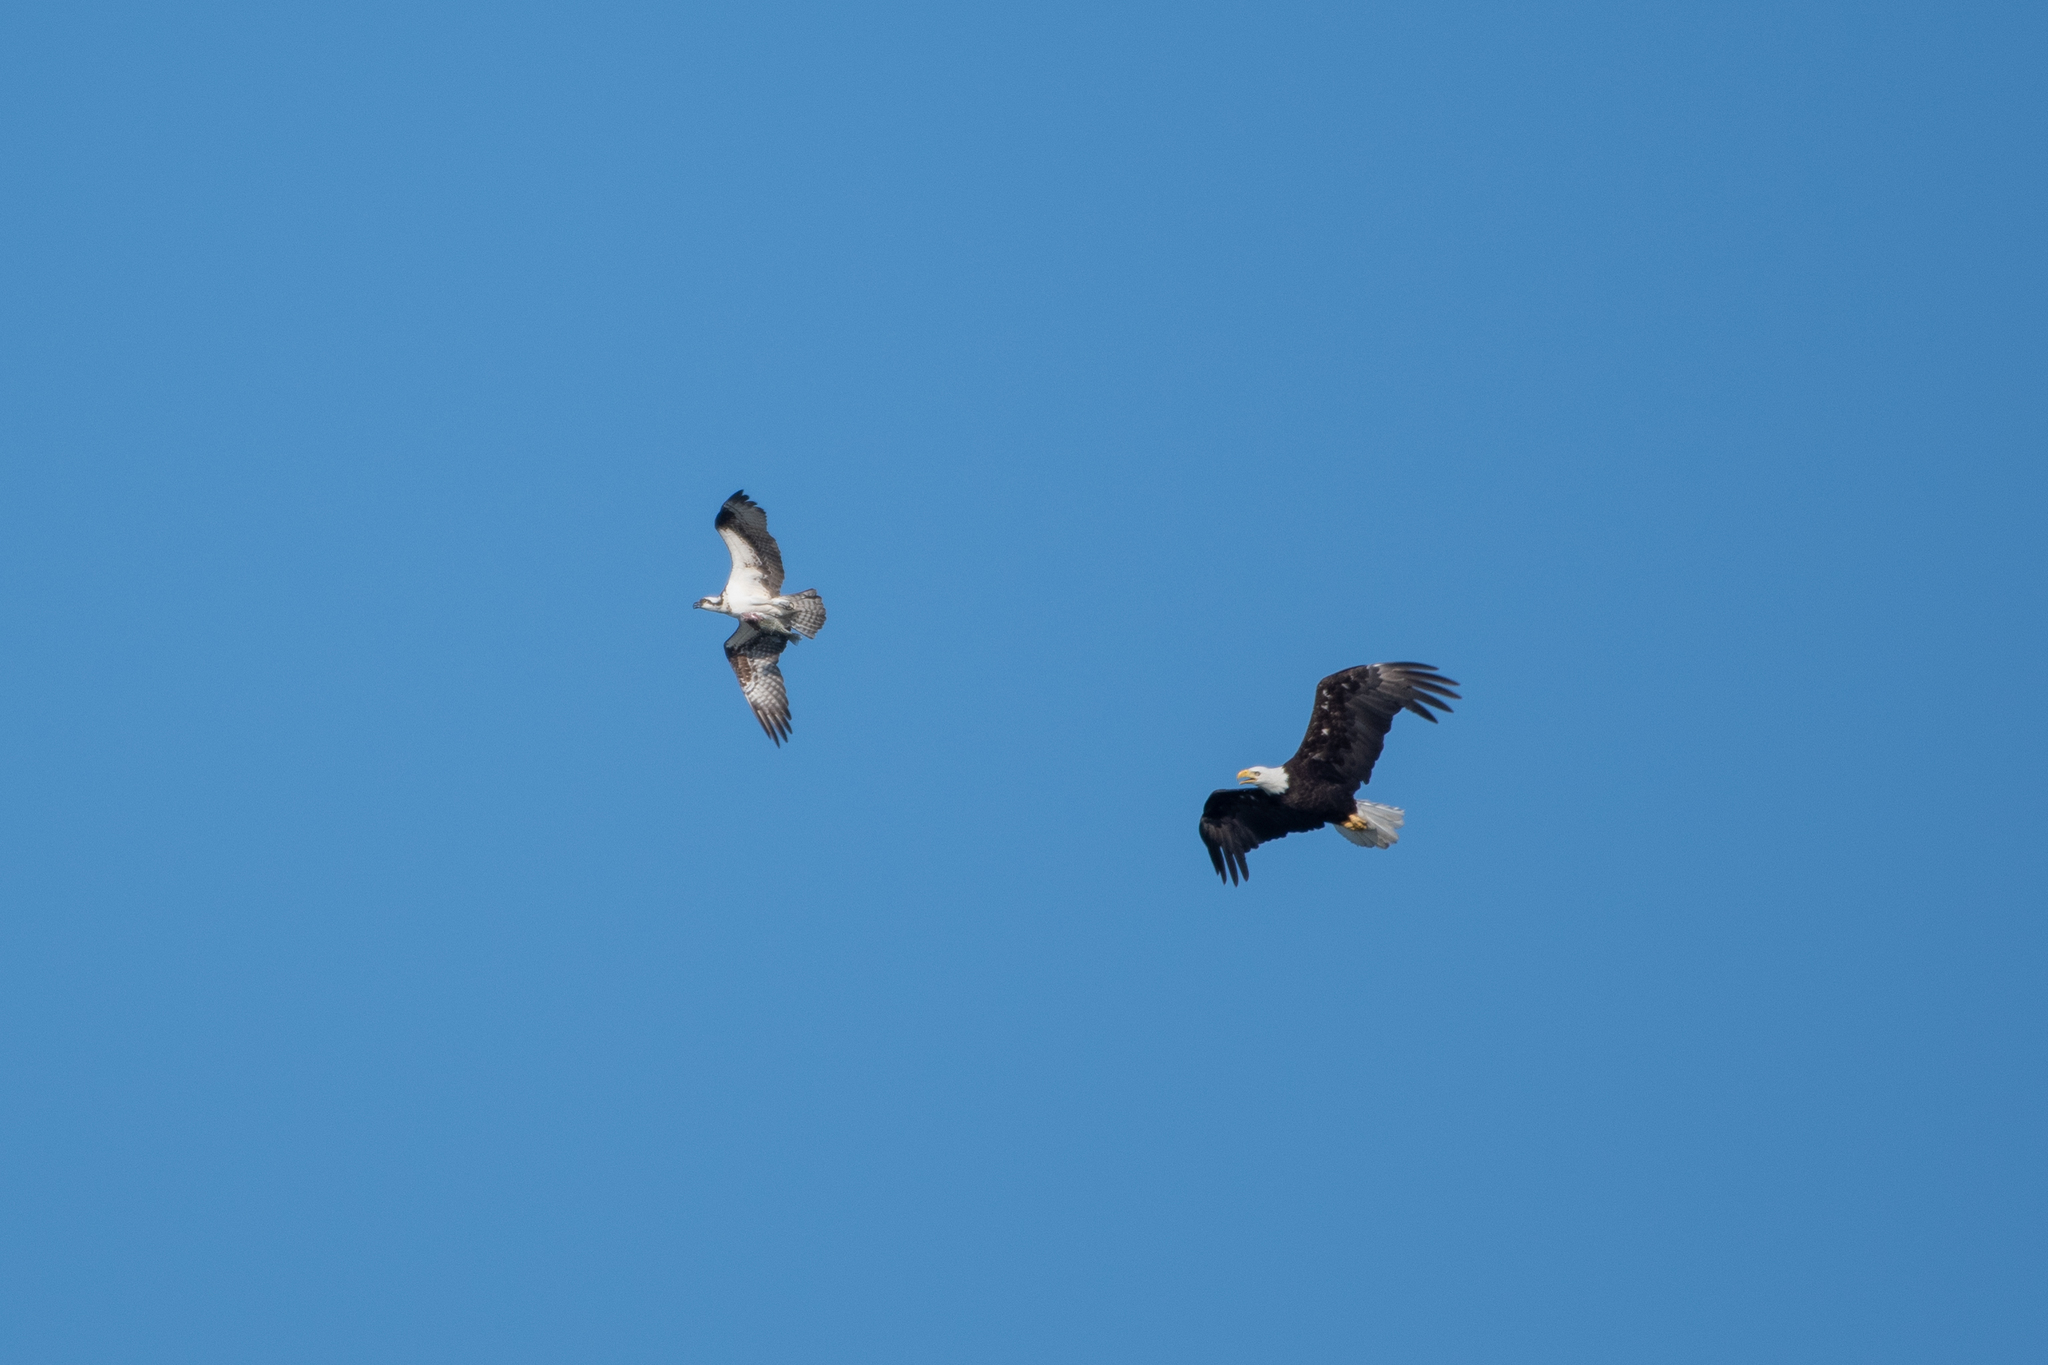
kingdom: Animalia
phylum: Chordata
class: Aves
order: Accipitriformes
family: Pandionidae
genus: Pandion
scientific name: Pandion haliaetus
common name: Osprey
